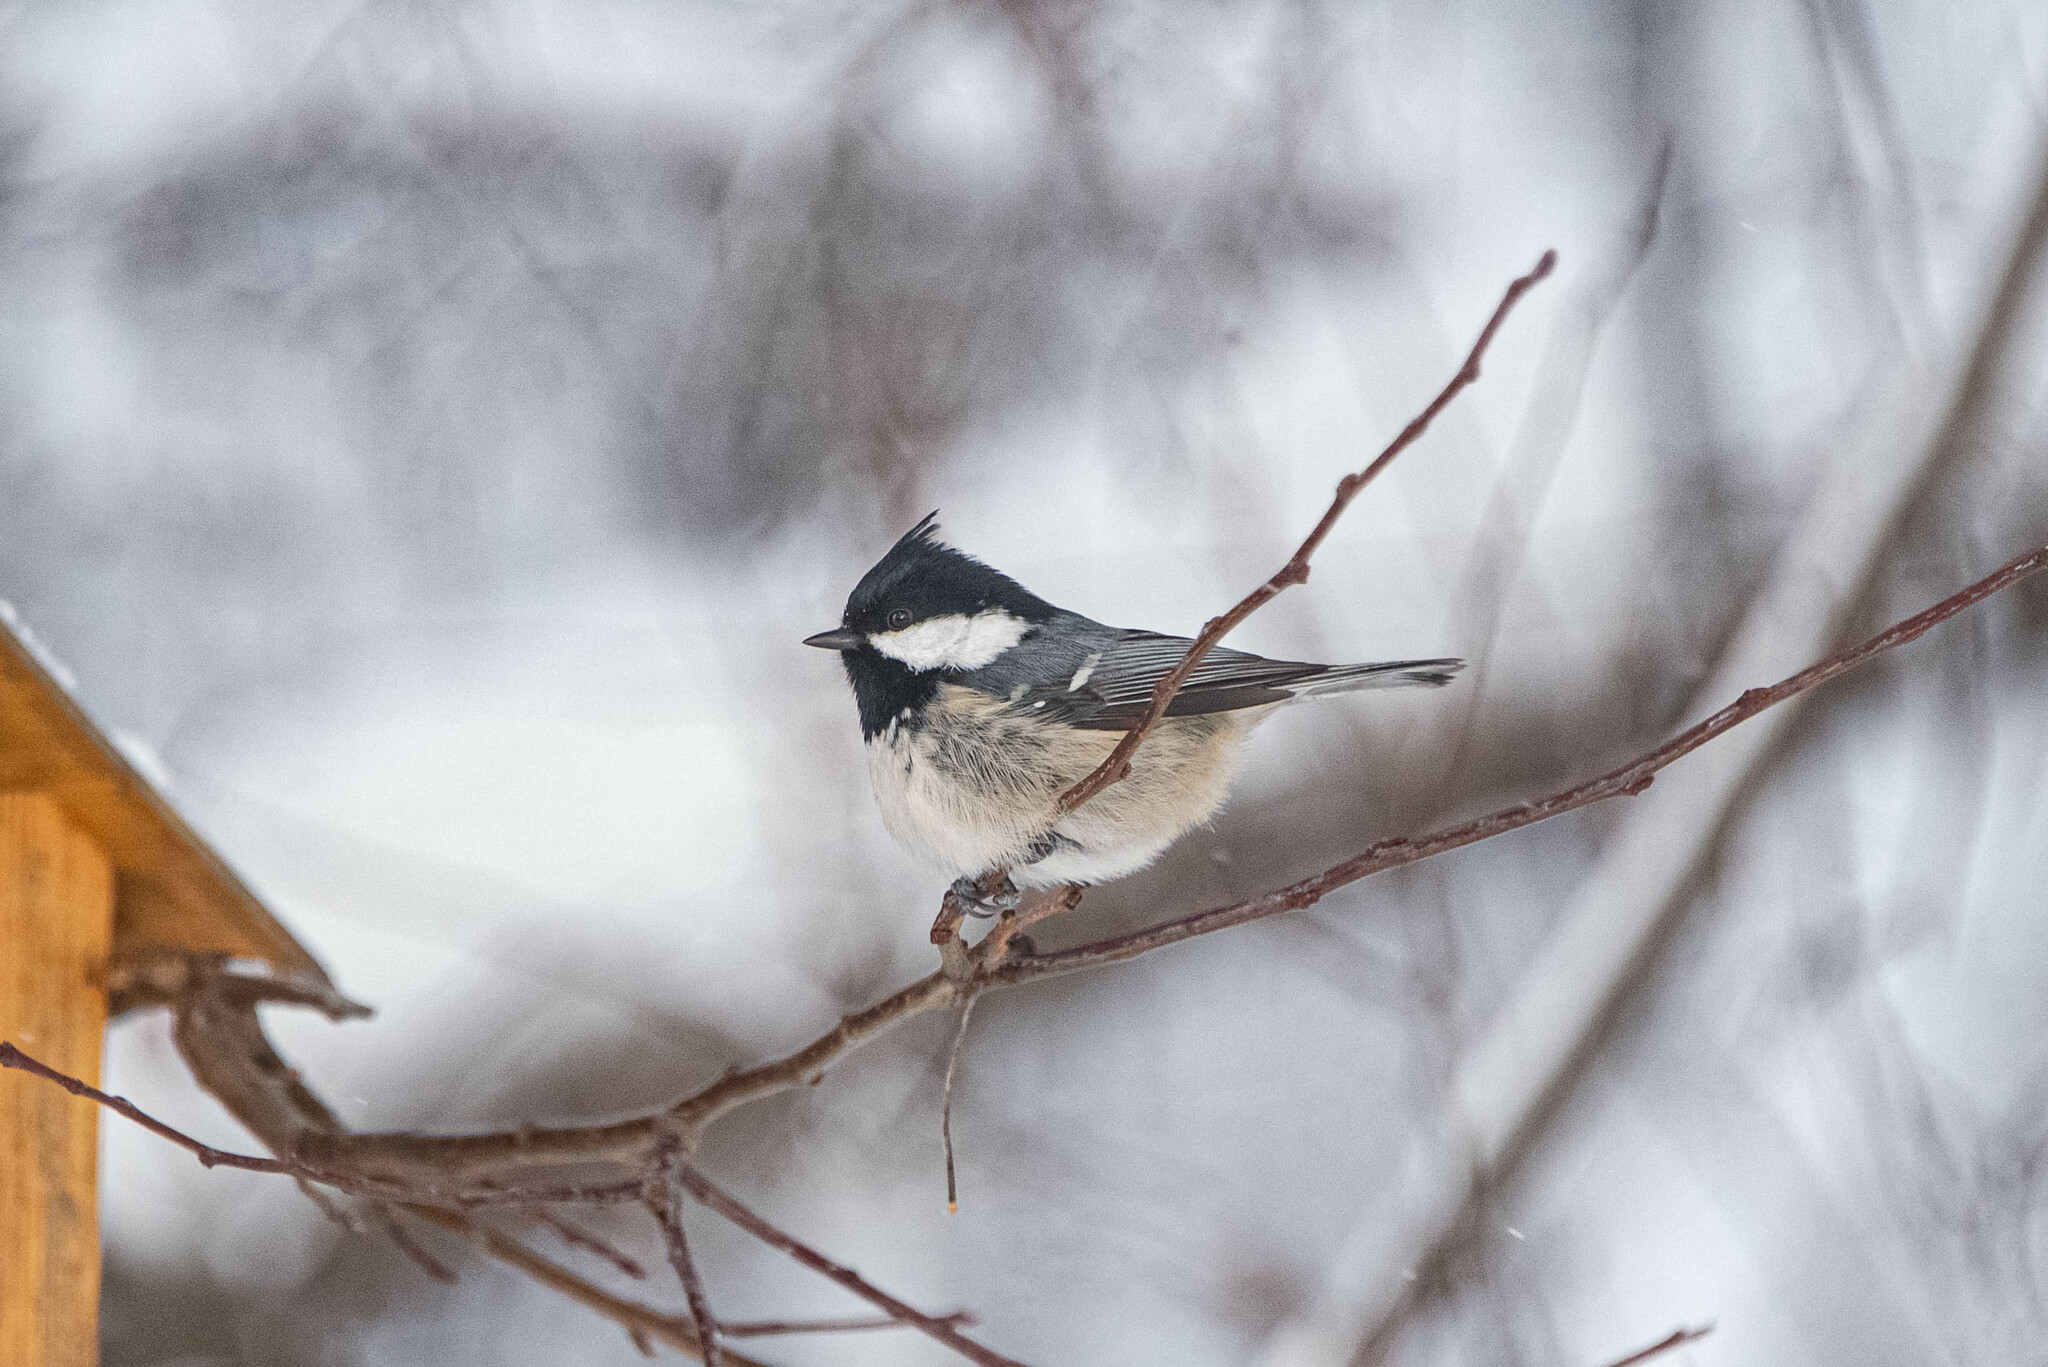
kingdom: Animalia
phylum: Chordata
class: Aves
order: Passeriformes
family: Paridae
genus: Periparus
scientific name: Periparus ater
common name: Coal tit
